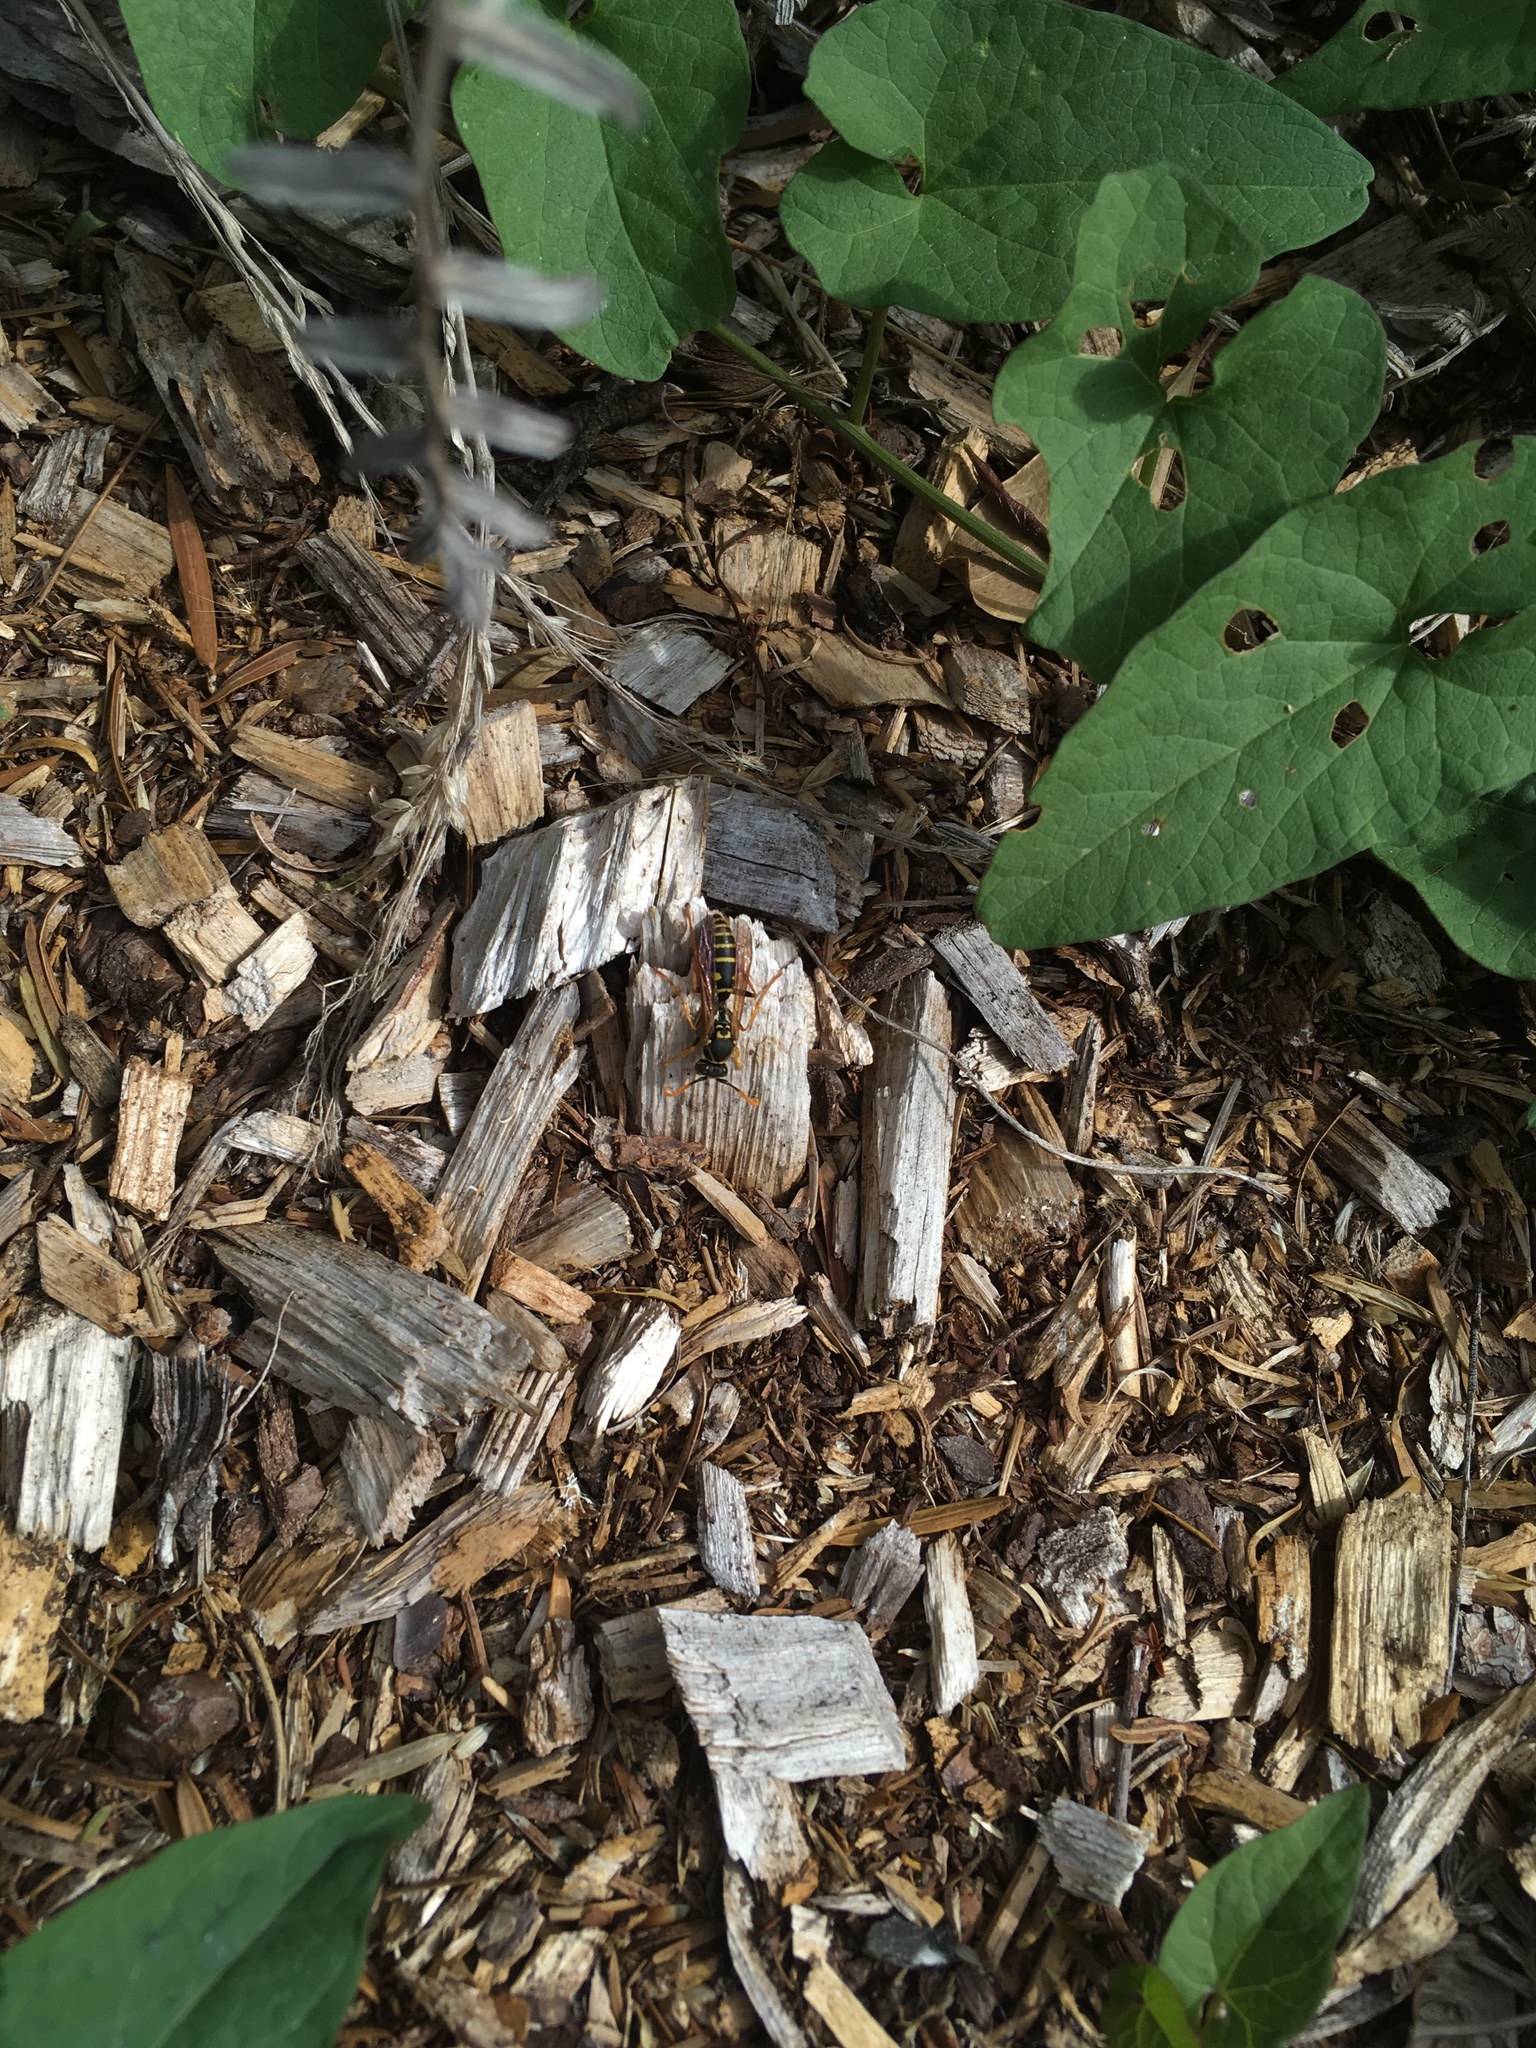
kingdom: Animalia
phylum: Arthropoda
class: Insecta
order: Hymenoptera
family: Eumenidae
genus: Polistes
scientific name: Polistes chinensis
